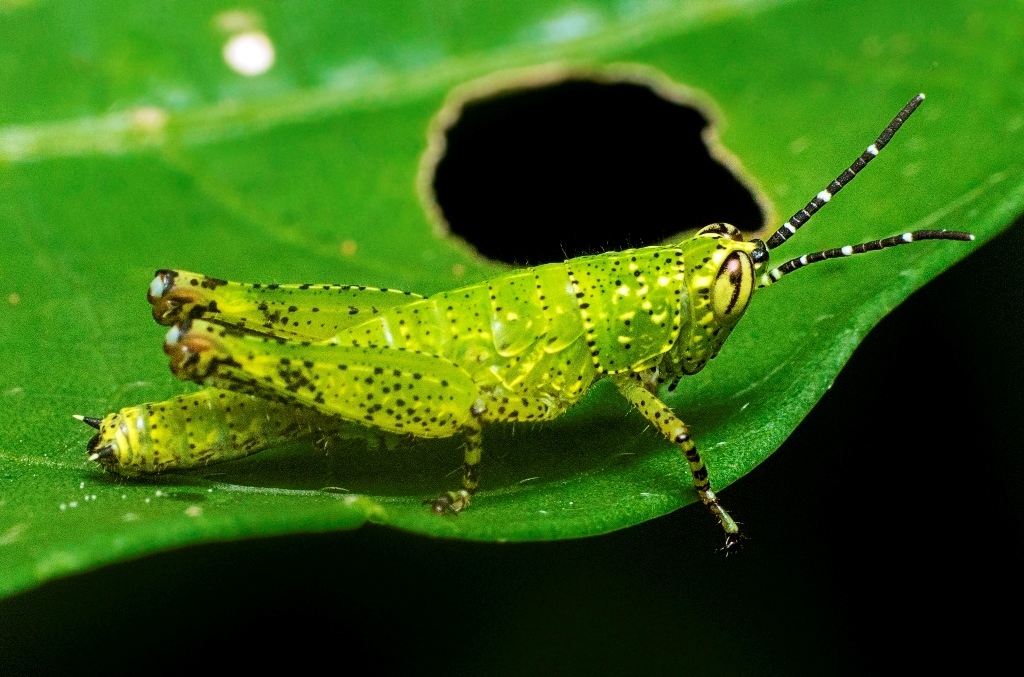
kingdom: Animalia
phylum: Arthropoda
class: Insecta
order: Orthoptera
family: Acrididae
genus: Xenocatantops
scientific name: Xenocatantops humile
